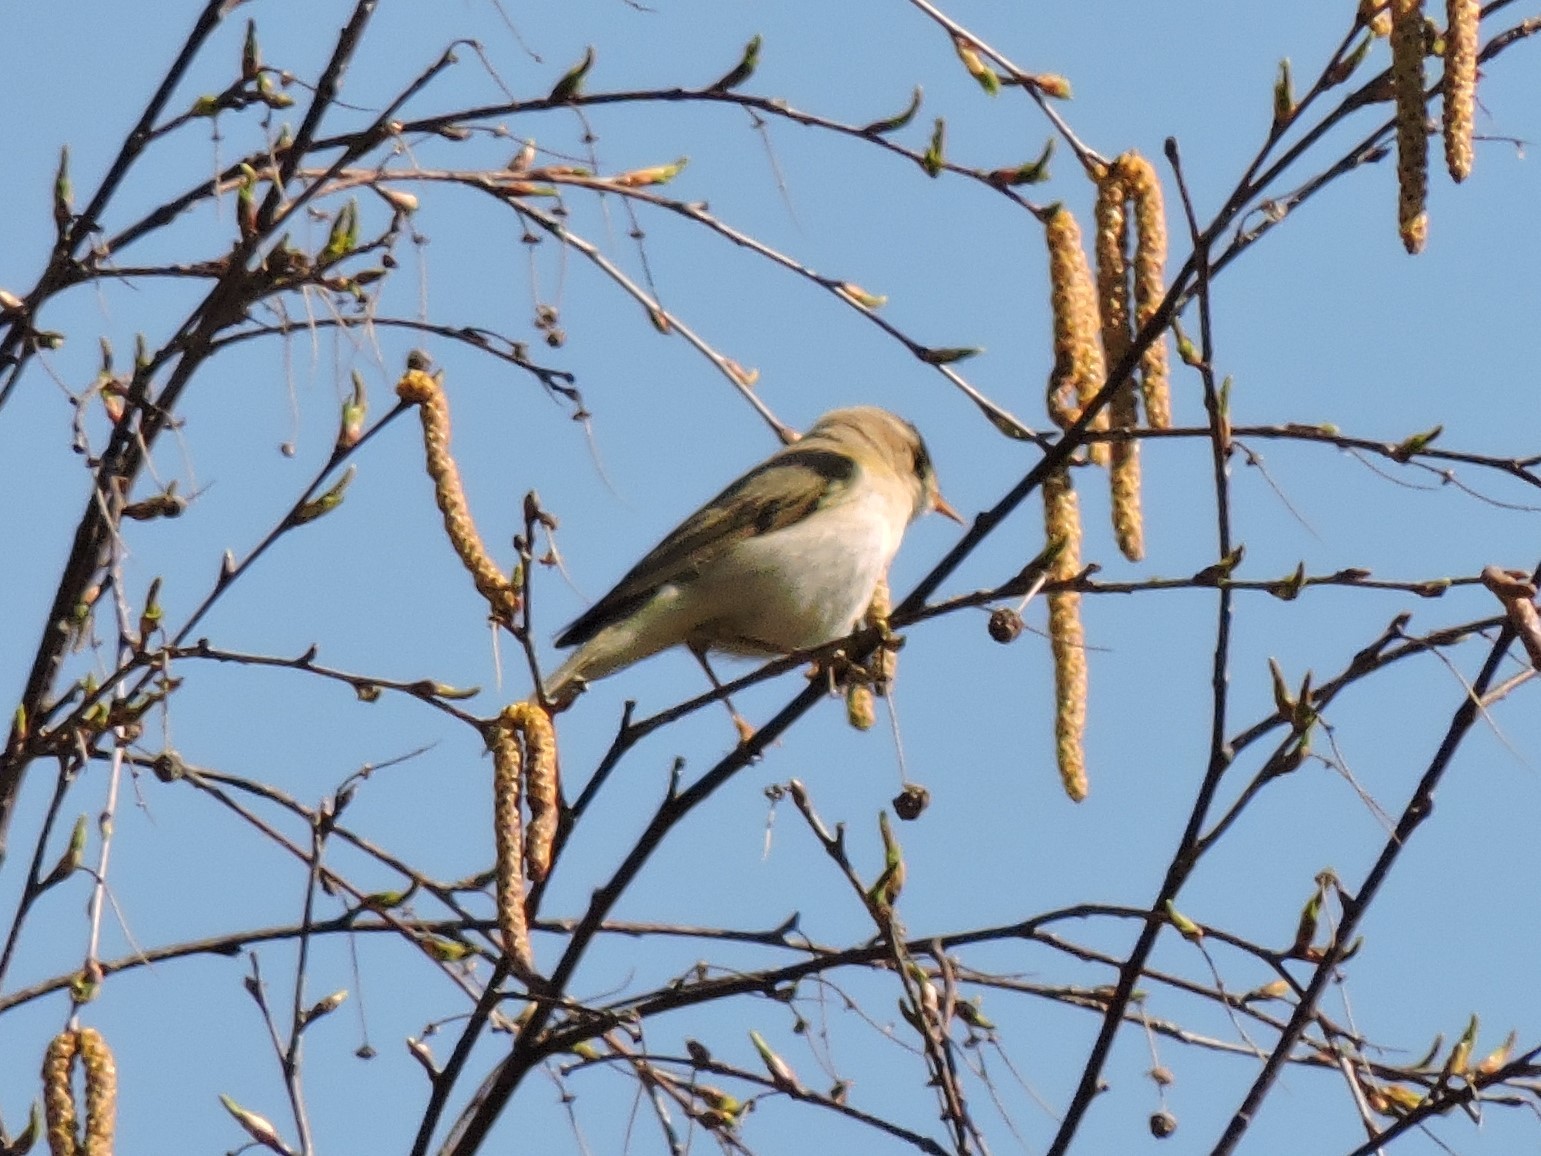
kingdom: Animalia
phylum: Chordata
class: Aves
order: Passeriformes
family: Phylloscopidae
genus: Phylloscopus
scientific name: Phylloscopus trochilus
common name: Willow warbler
